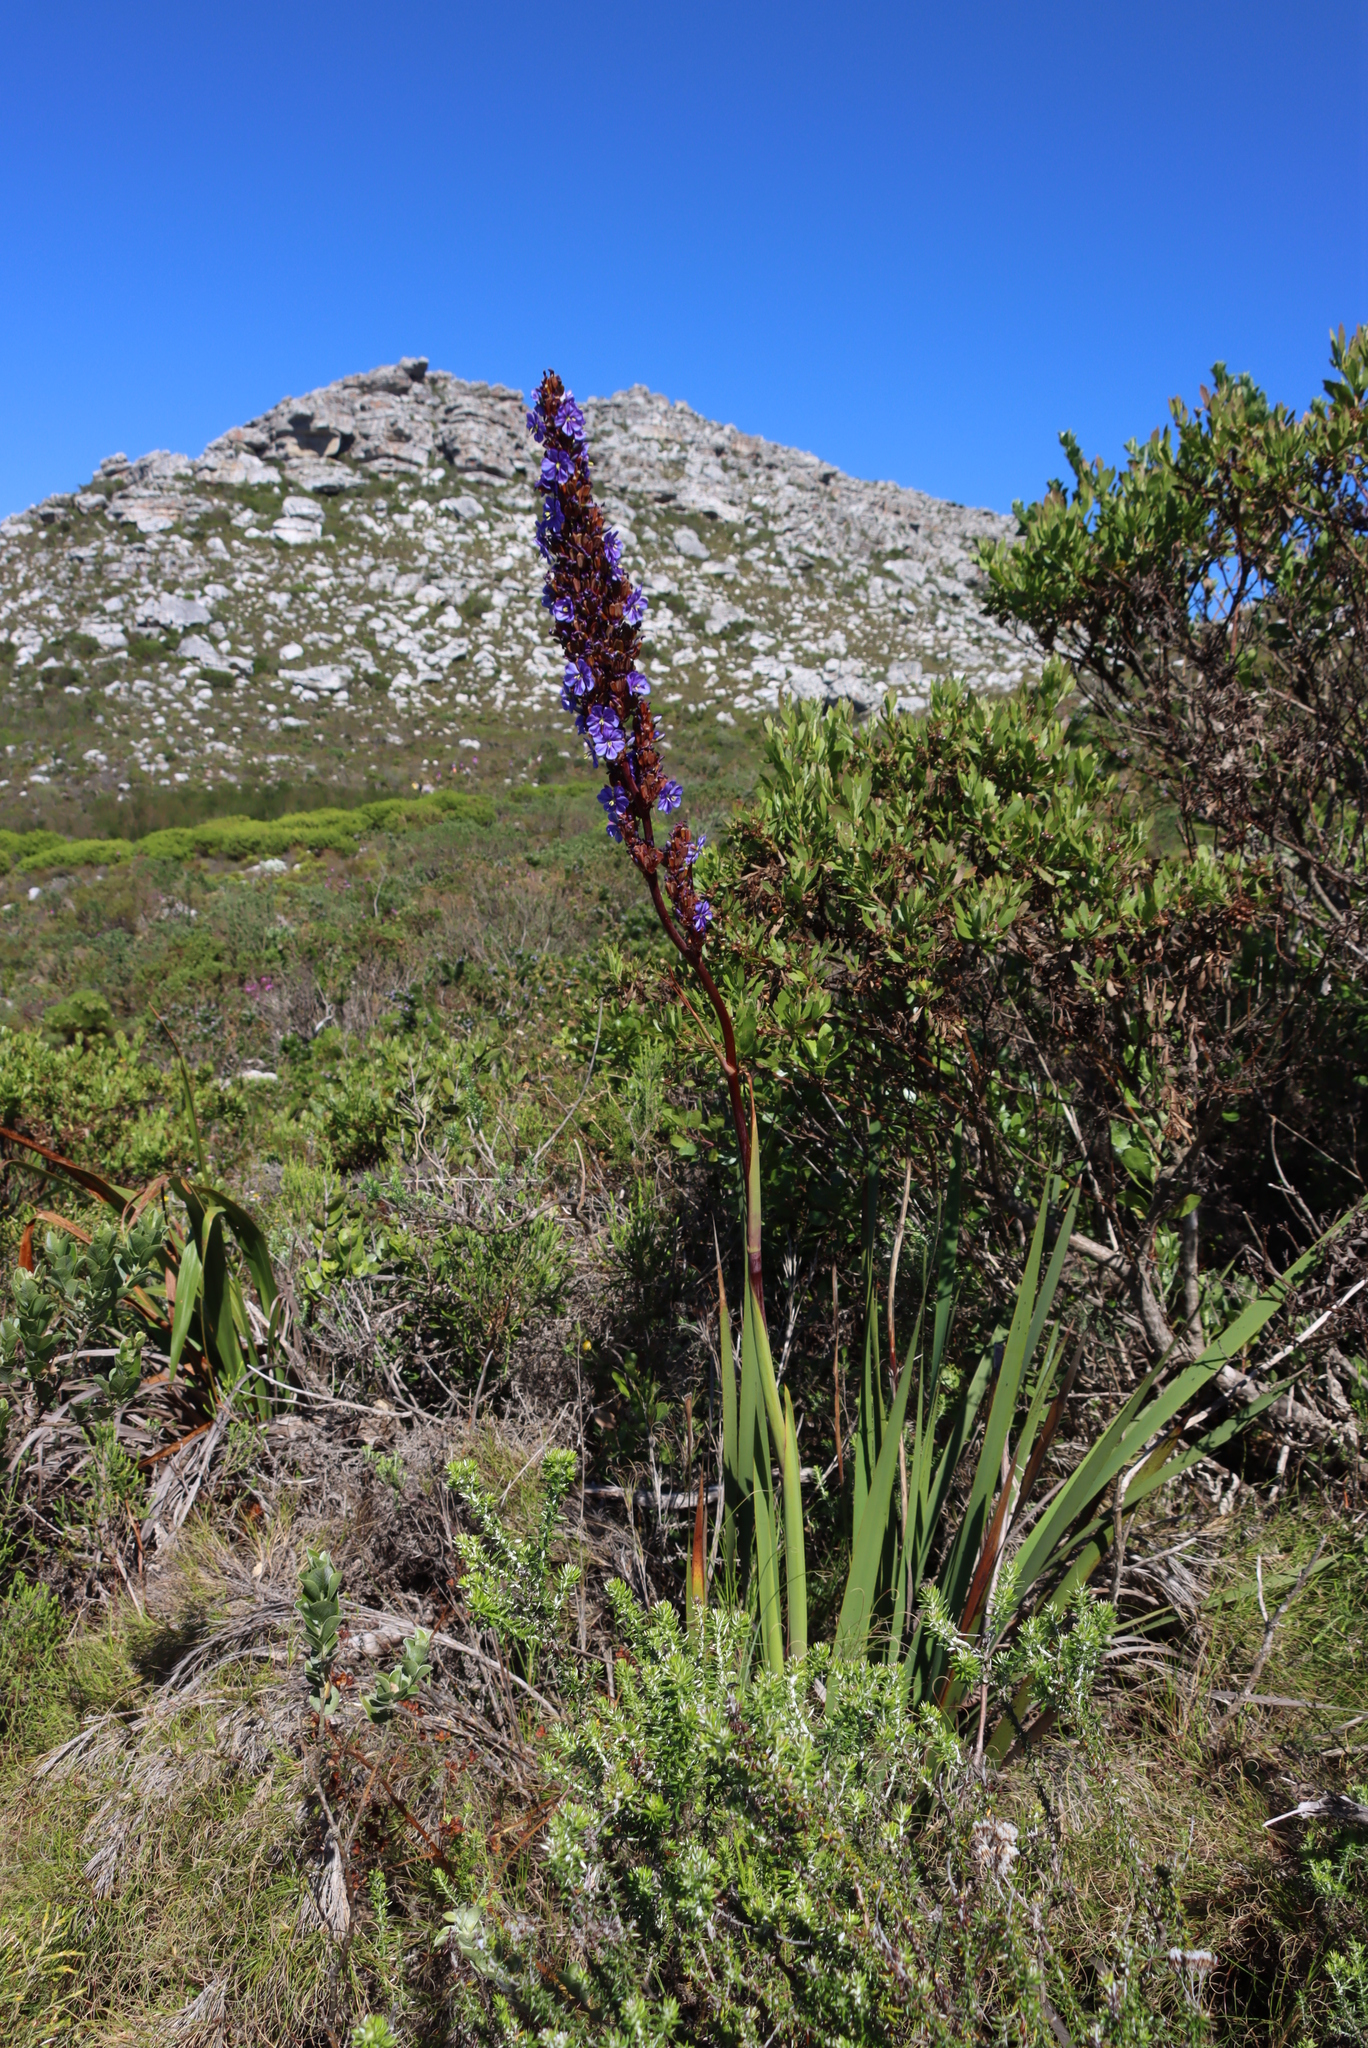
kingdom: Plantae
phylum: Tracheophyta
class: Liliopsida
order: Asparagales
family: Iridaceae
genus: Aristea
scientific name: Aristea capitata
